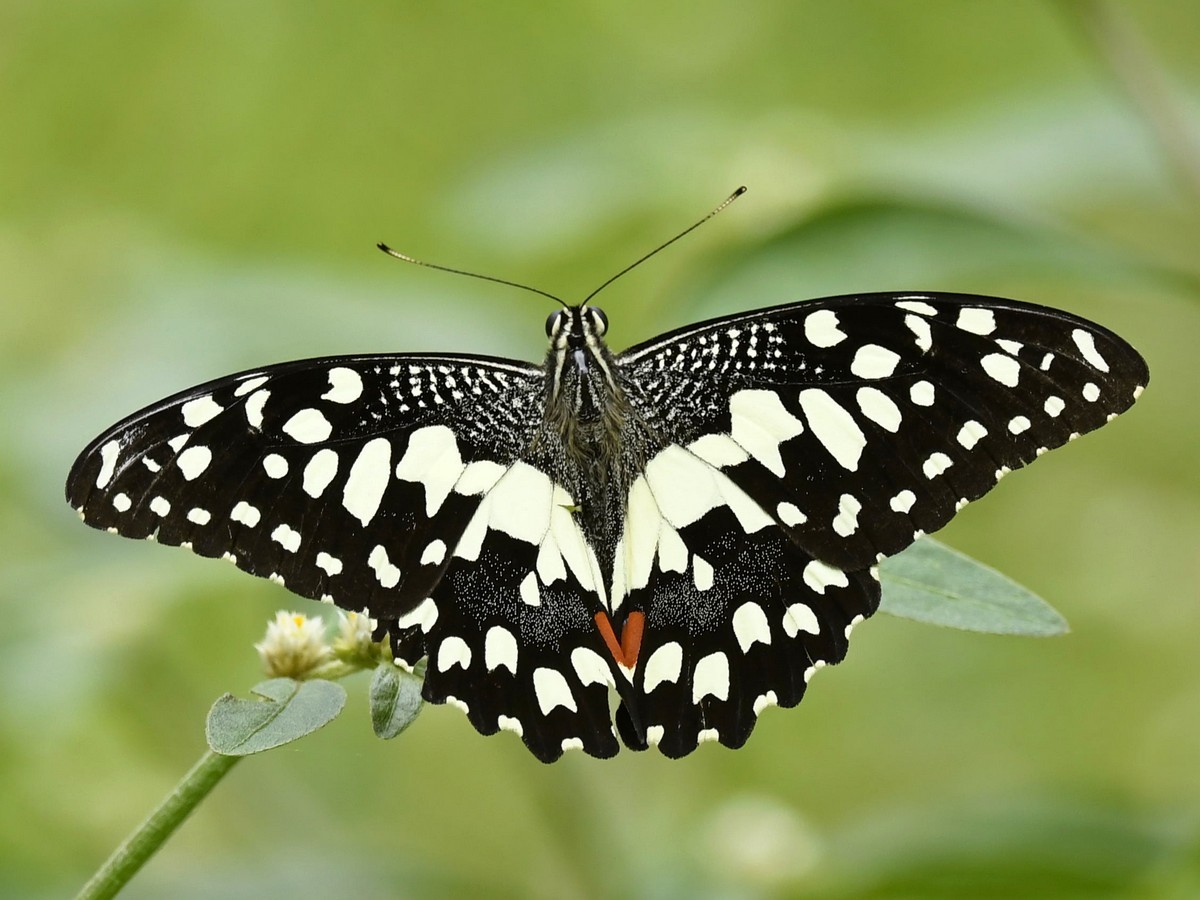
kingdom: Animalia
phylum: Arthropoda
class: Insecta
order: Lepidoptera
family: Papilionidae
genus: Papilio
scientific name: Papilio demoleus
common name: Lime butterfly
